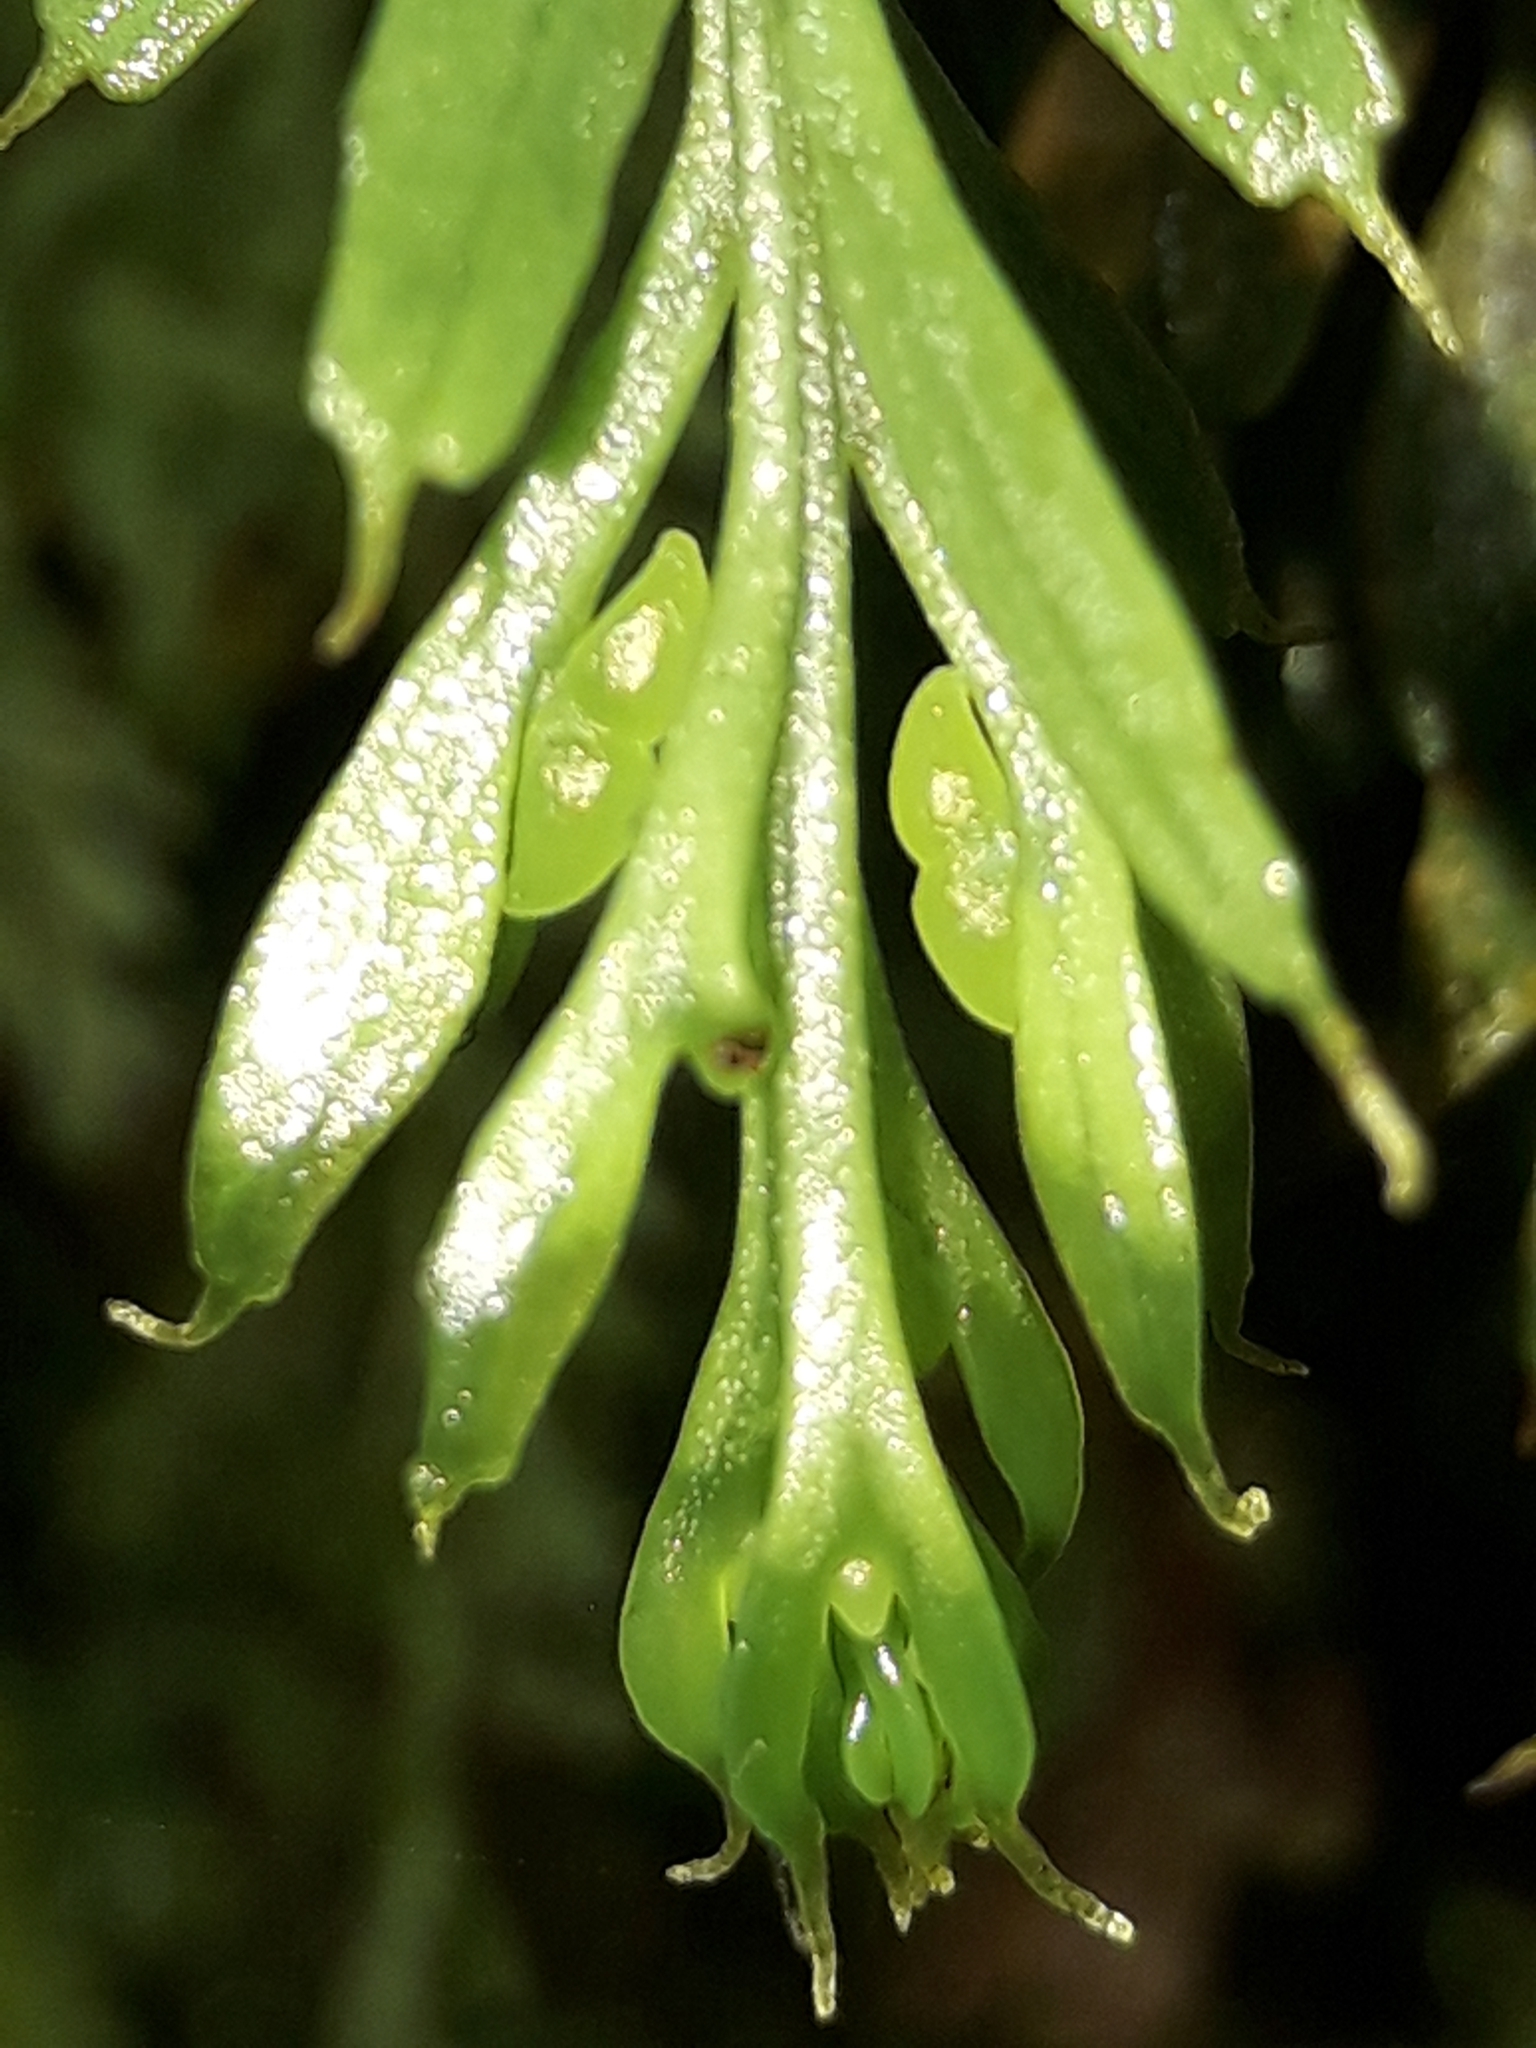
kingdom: Plantae
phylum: Tracheophyta
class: Polypodiopsida
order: Psilotales
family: Psilotaceae
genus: Tmesipteris
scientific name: Tmesipteris tannensis
